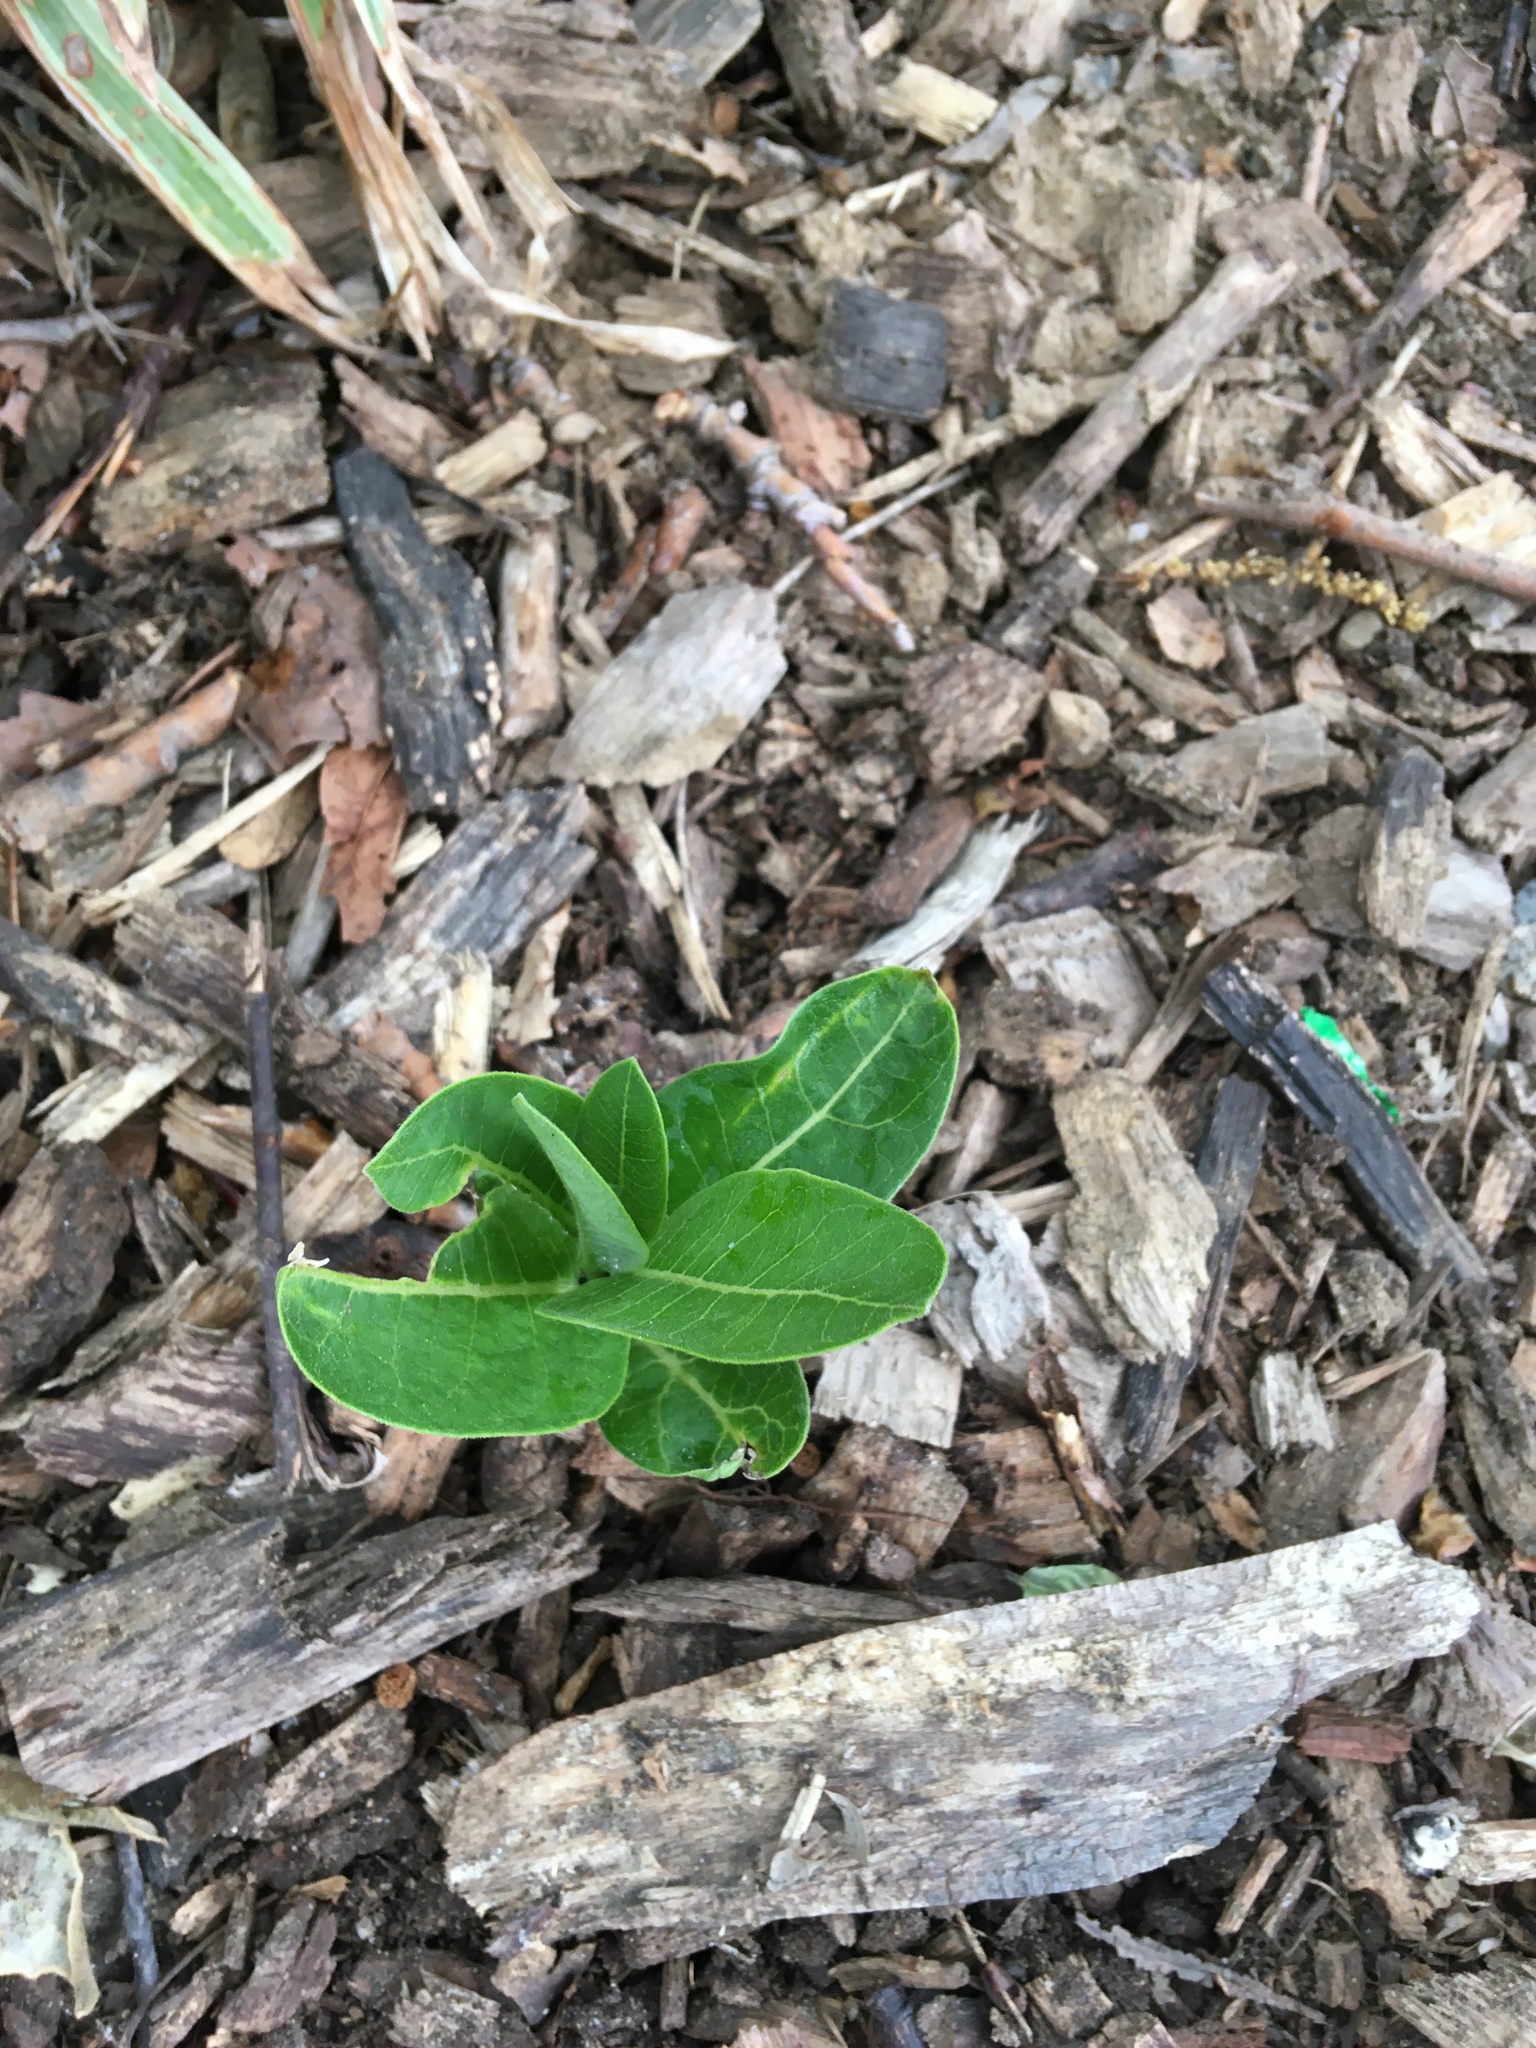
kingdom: Plantae
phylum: Tracheophyta
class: Magnoliopsida
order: Gentianales
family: Apocynaceae
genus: Asclepias
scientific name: Asclepias syriaca
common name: Common milkweed
